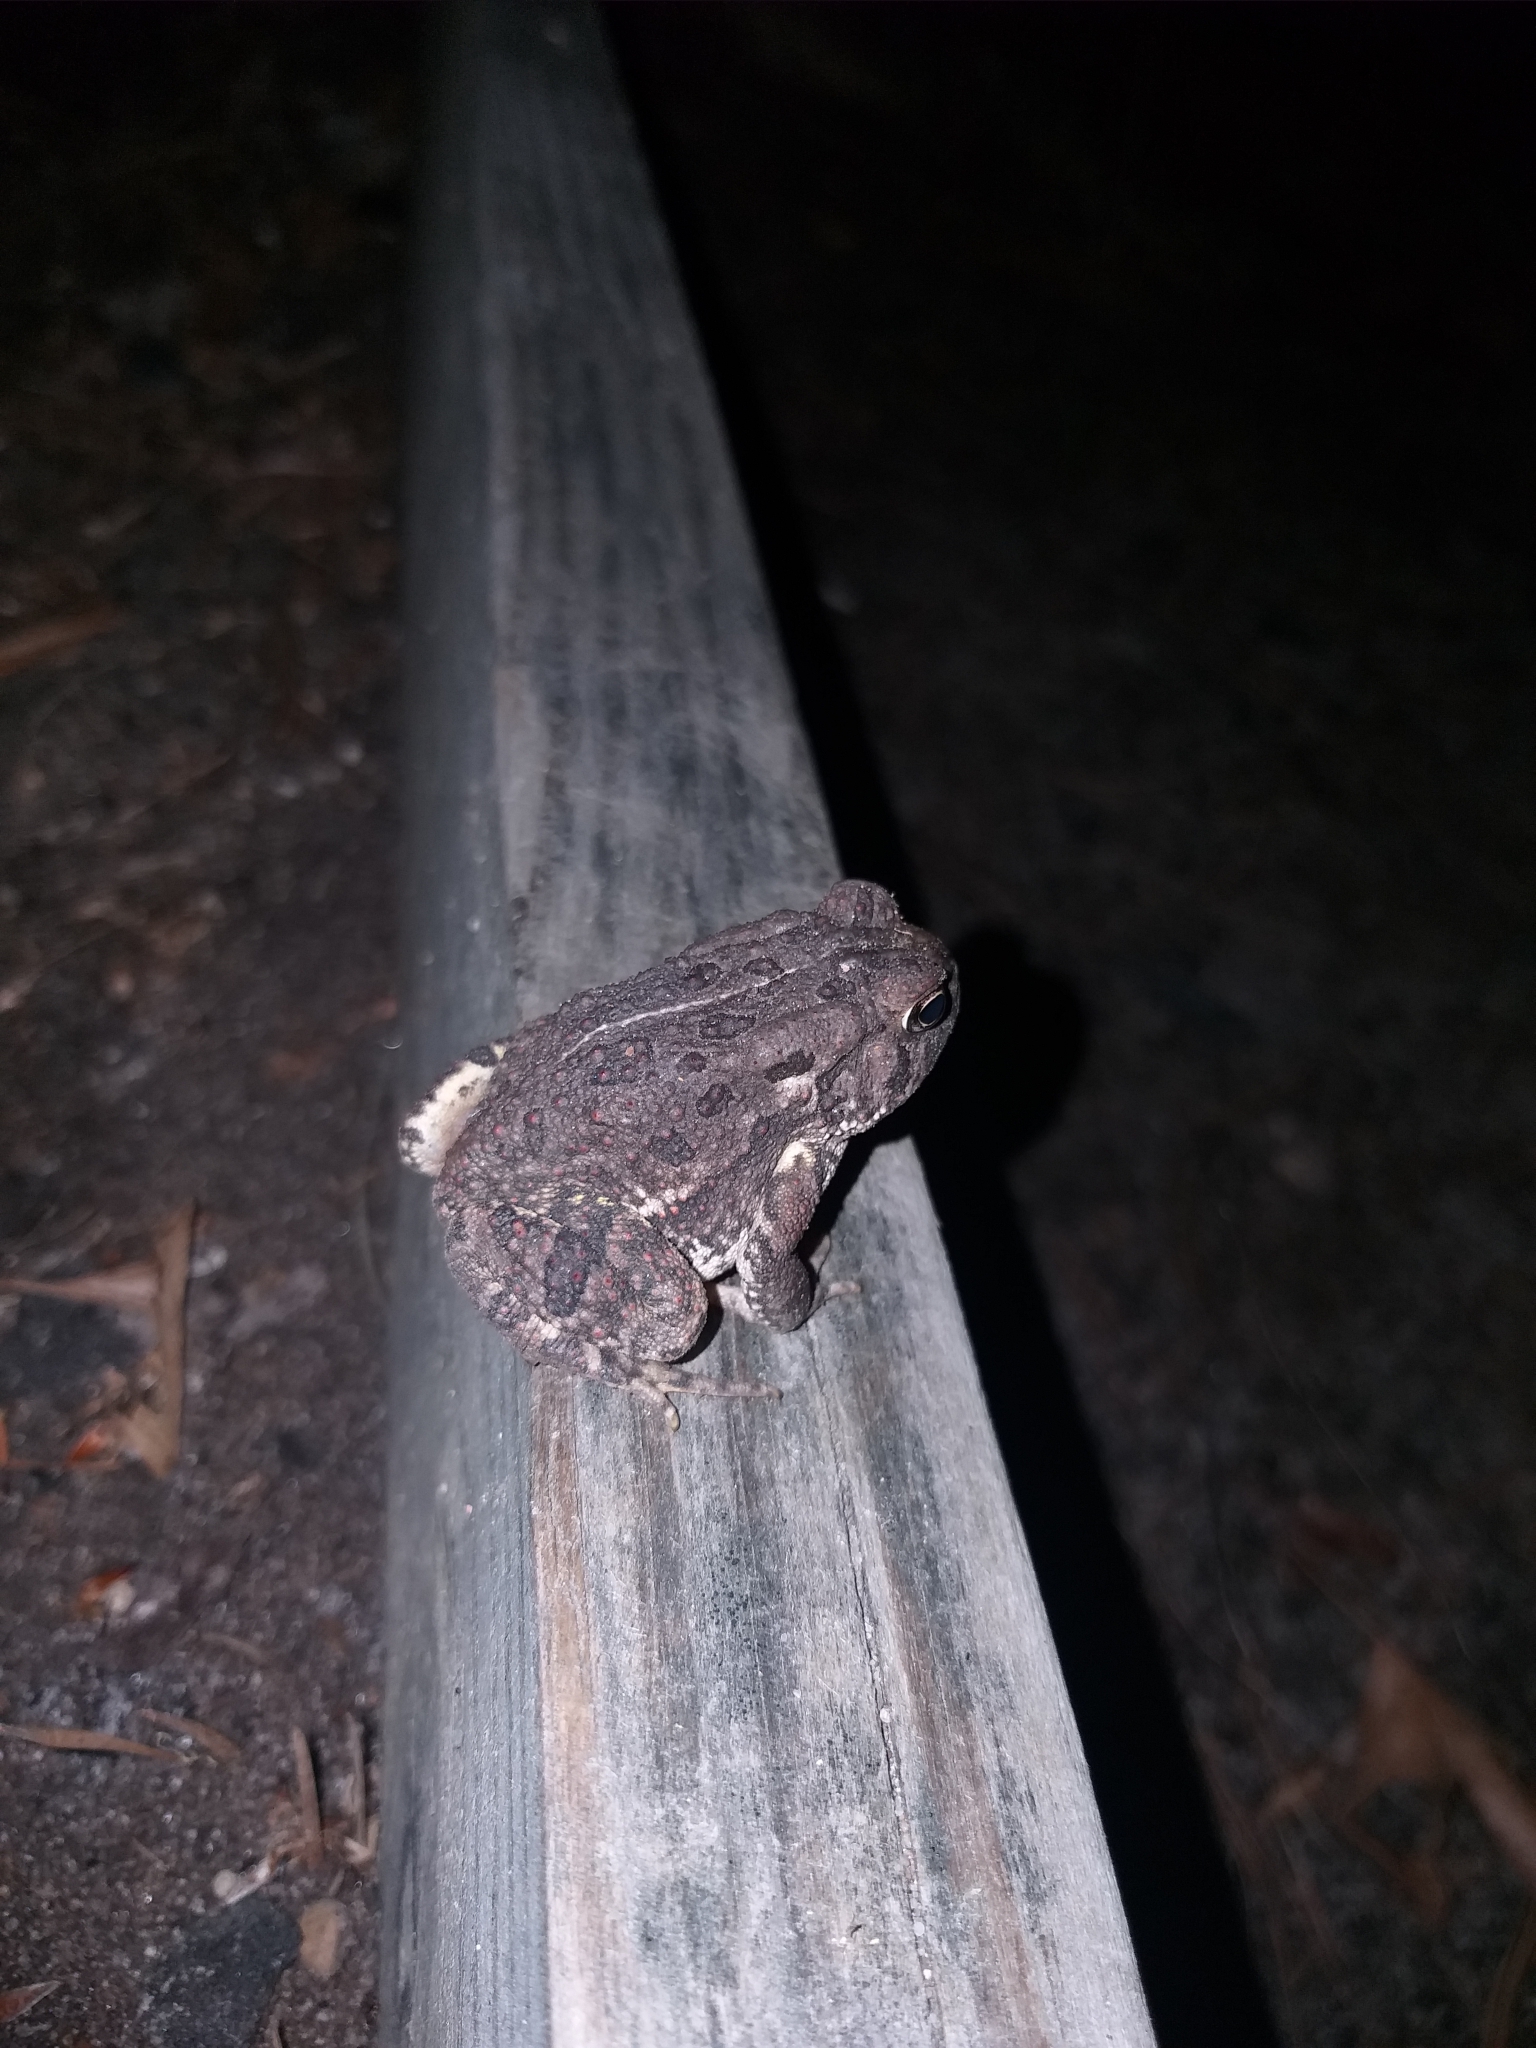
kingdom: Animalia
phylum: Chordata
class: Amphibia
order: Anura
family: Bufonidae
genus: Anaxyrus
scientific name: Anaxyrus fowleri
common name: Fowler's toad
